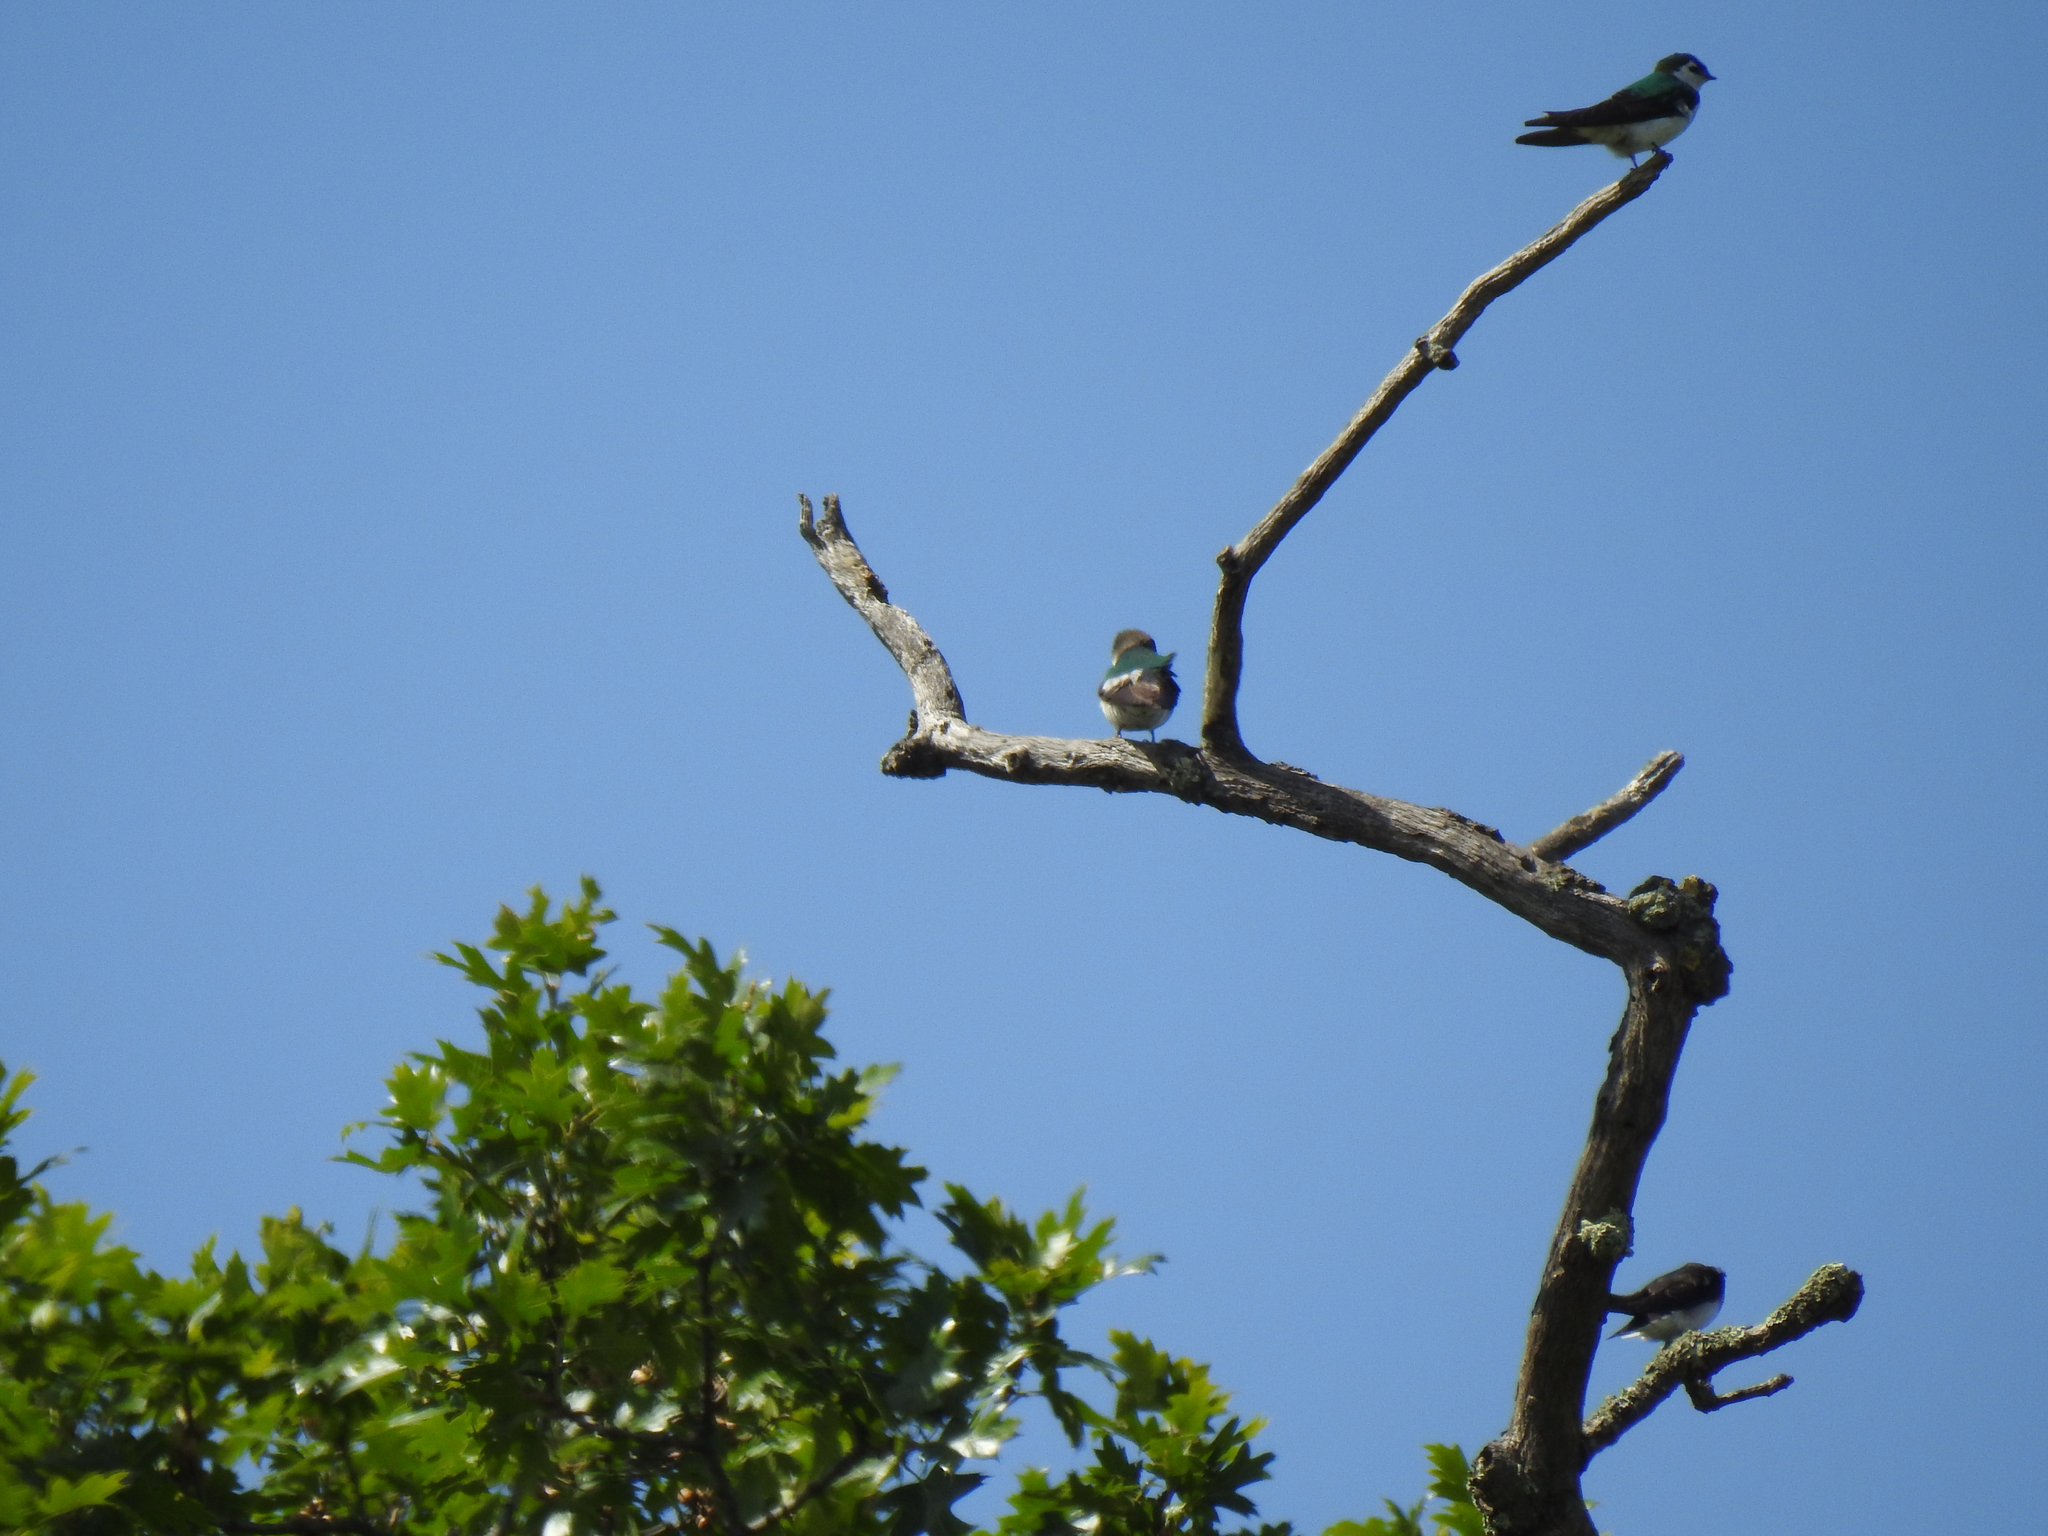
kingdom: Animalia
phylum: Chordata
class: Aves
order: Passeriformes
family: Hirundinidae
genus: Tachycineta
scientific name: Tachycineta thalassina
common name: Violet-green swallow
